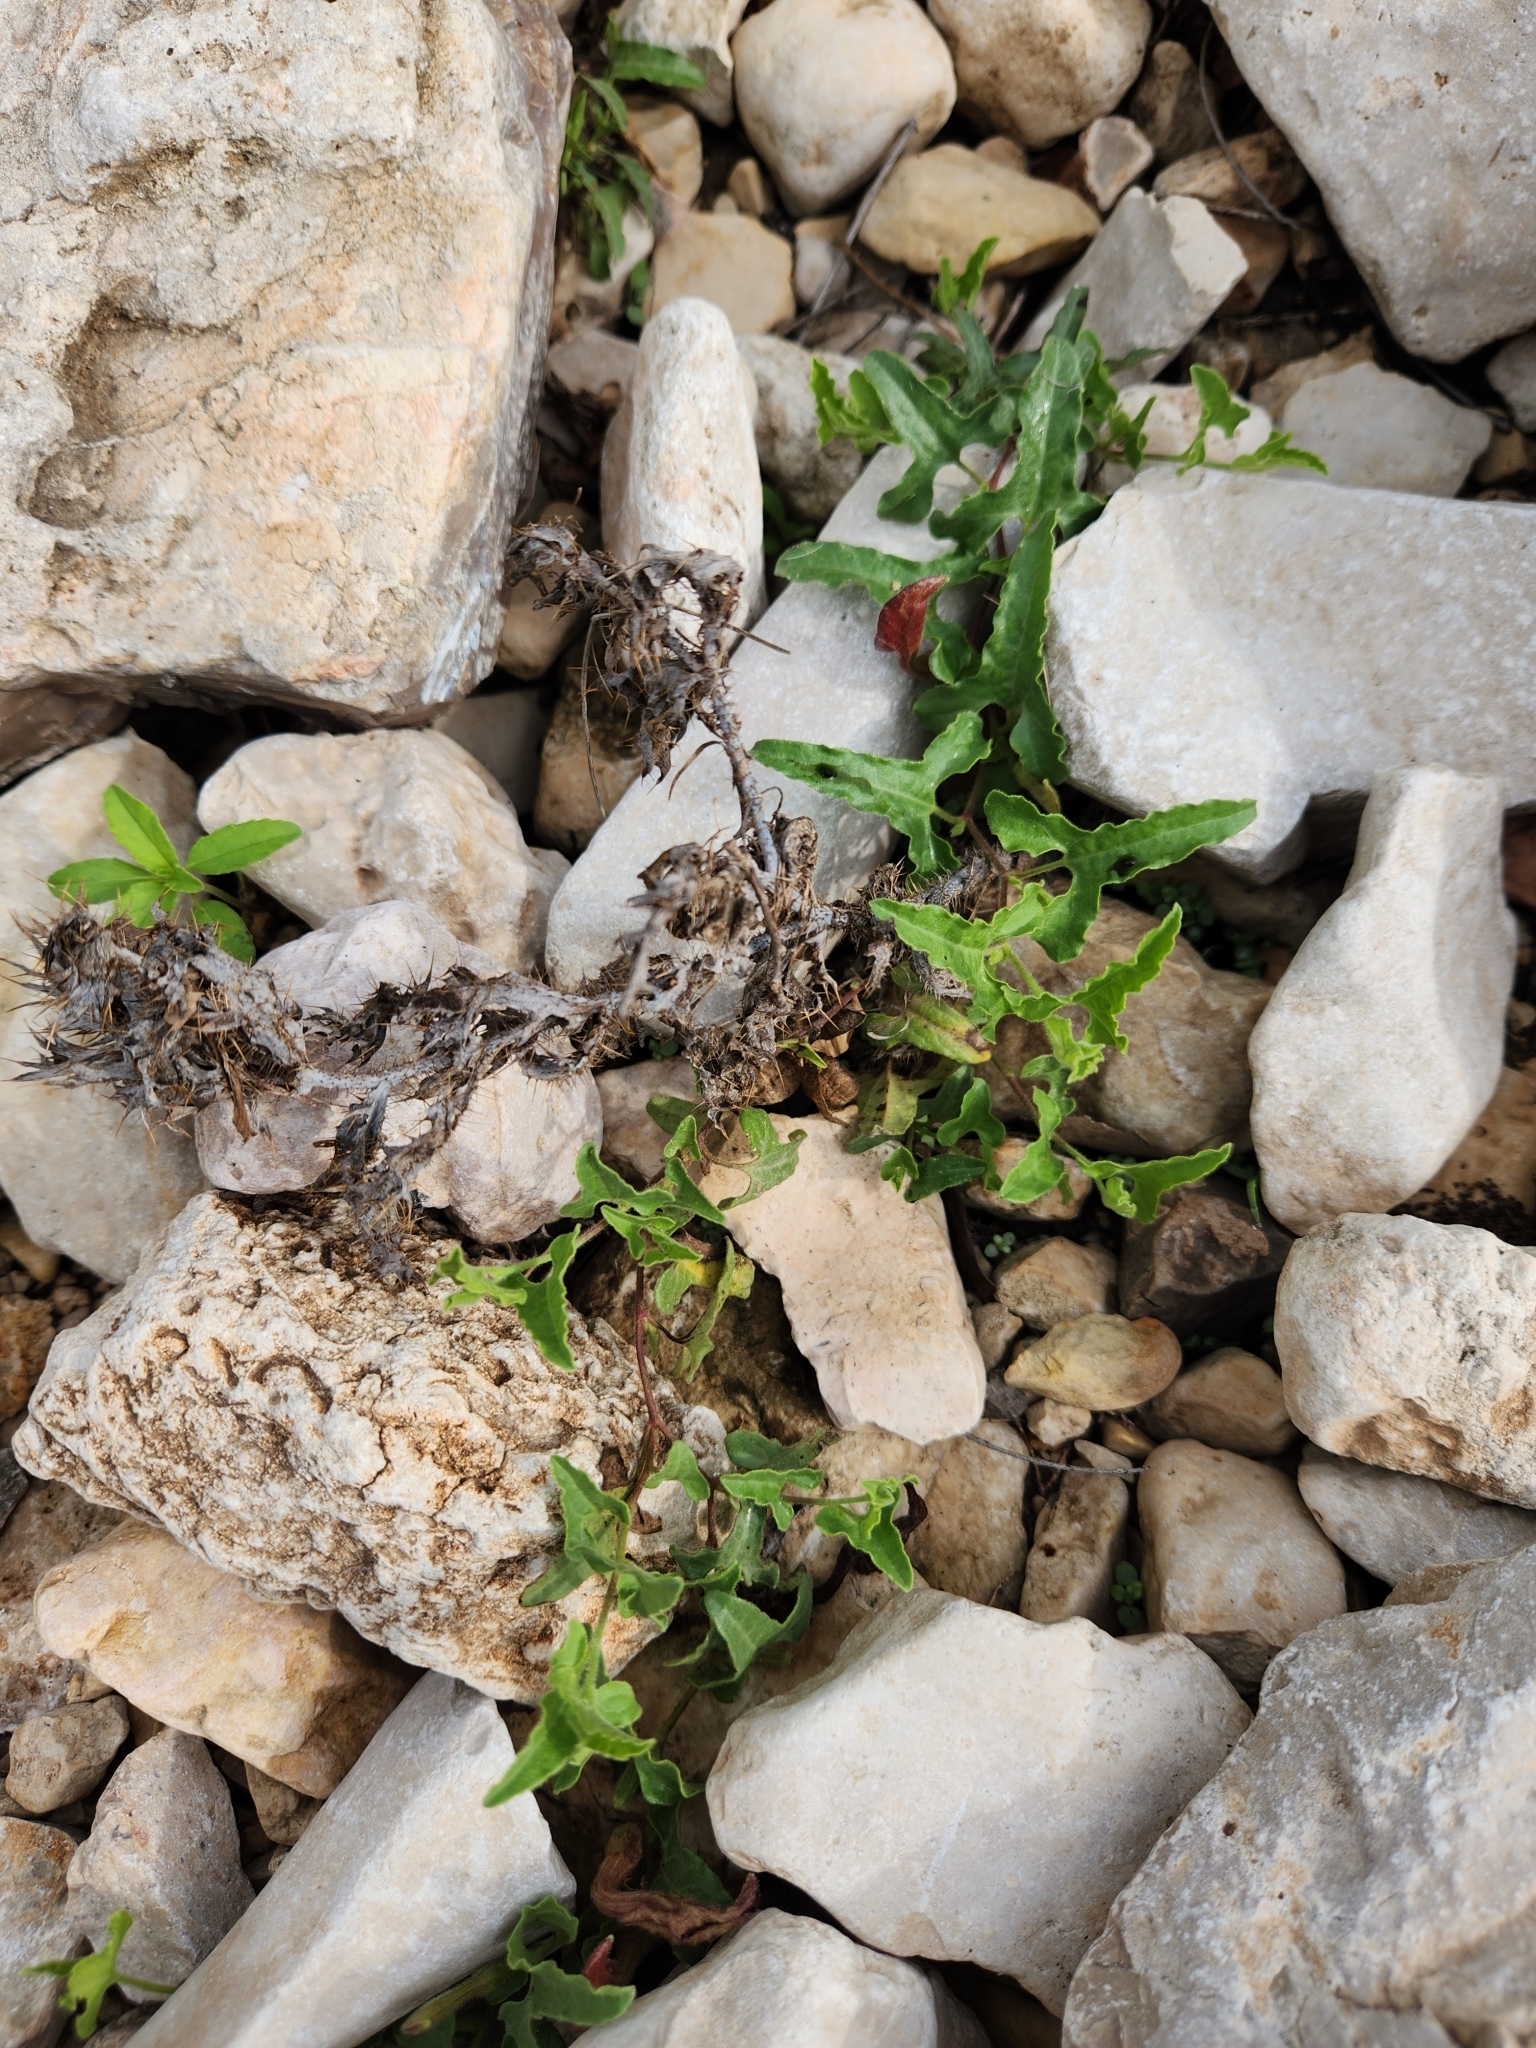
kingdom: Plantae
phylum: Tracheophyta
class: Magnoliopsida
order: Piperales
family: Aristolochiaceae
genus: Aristolochia
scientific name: Aristolochia coryi
